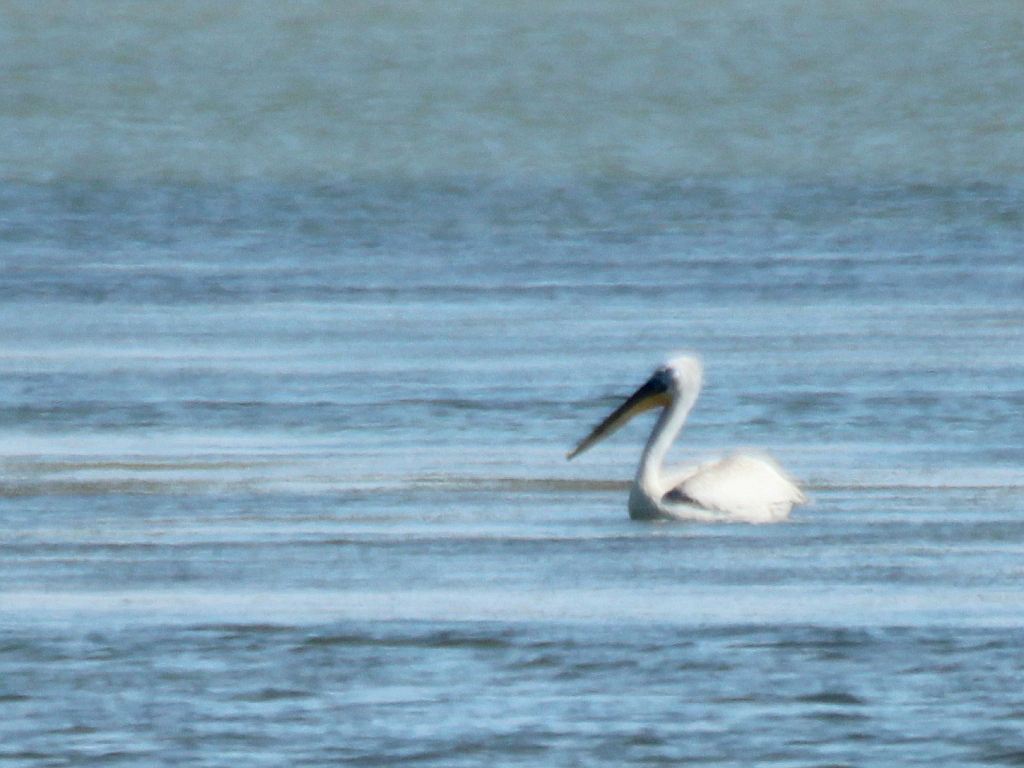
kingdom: Animalia
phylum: Chordata
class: Aves
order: Pelecaniformes
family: Pelecanidae
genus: Pelecanus
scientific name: Pelecanus crispus
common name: Dalmatian pelican
